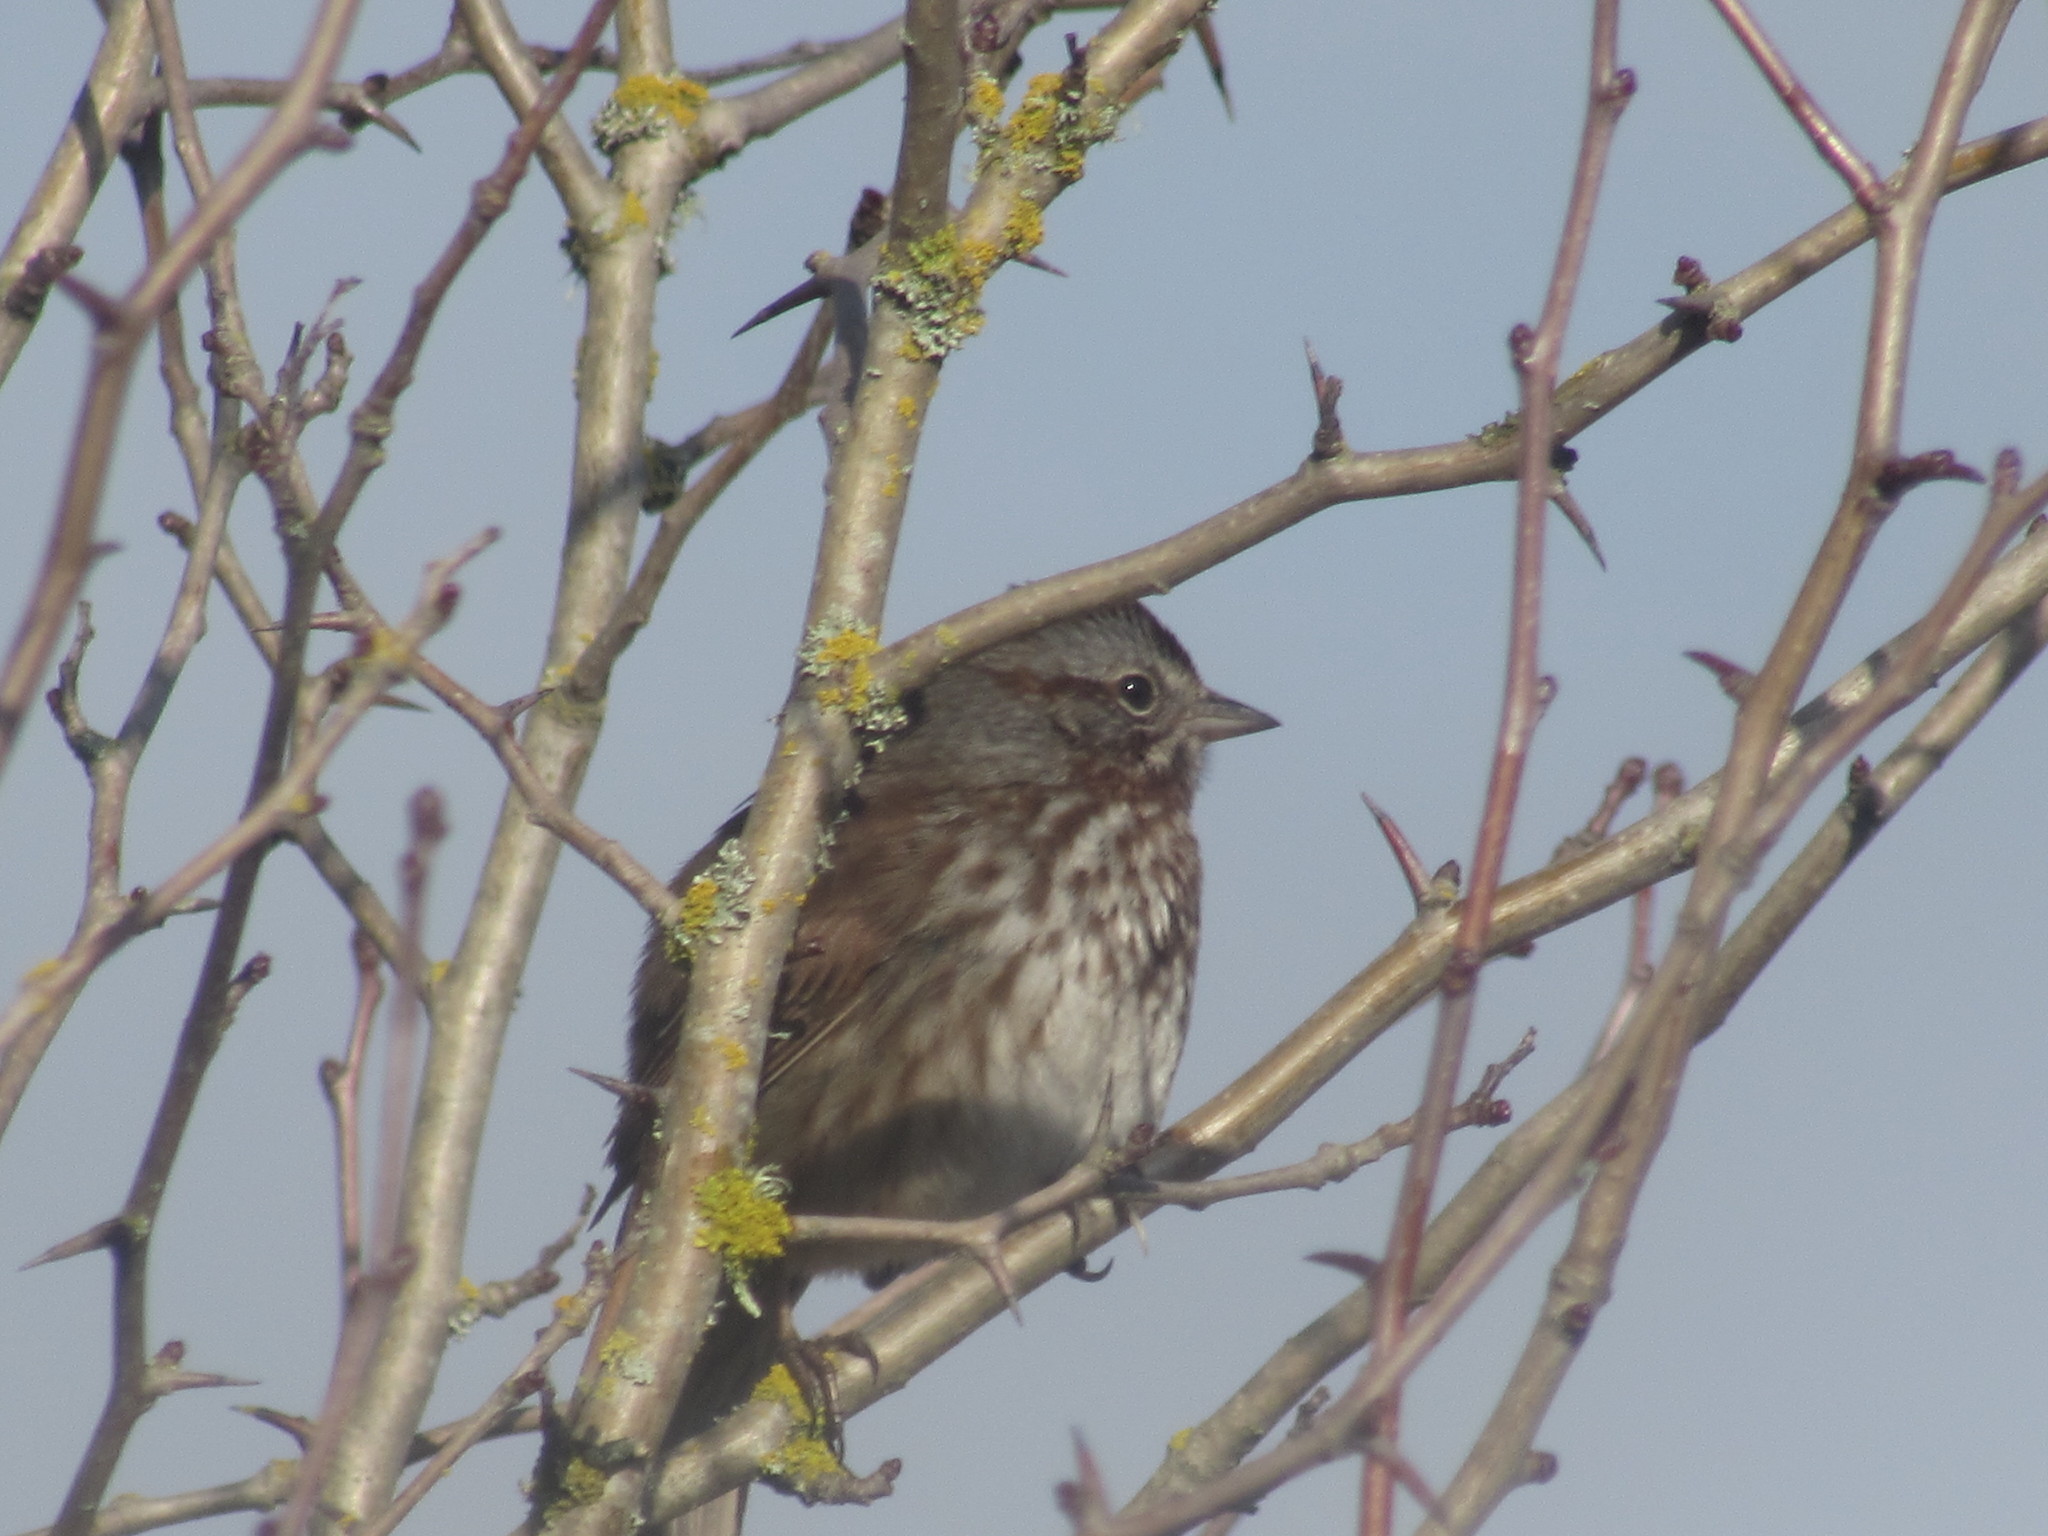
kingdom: Animalia
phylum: Chordata
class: Aves
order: Passeriformes
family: Passerellidae
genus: Melospiza
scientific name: Melospiza melodia
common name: Song sparrow
